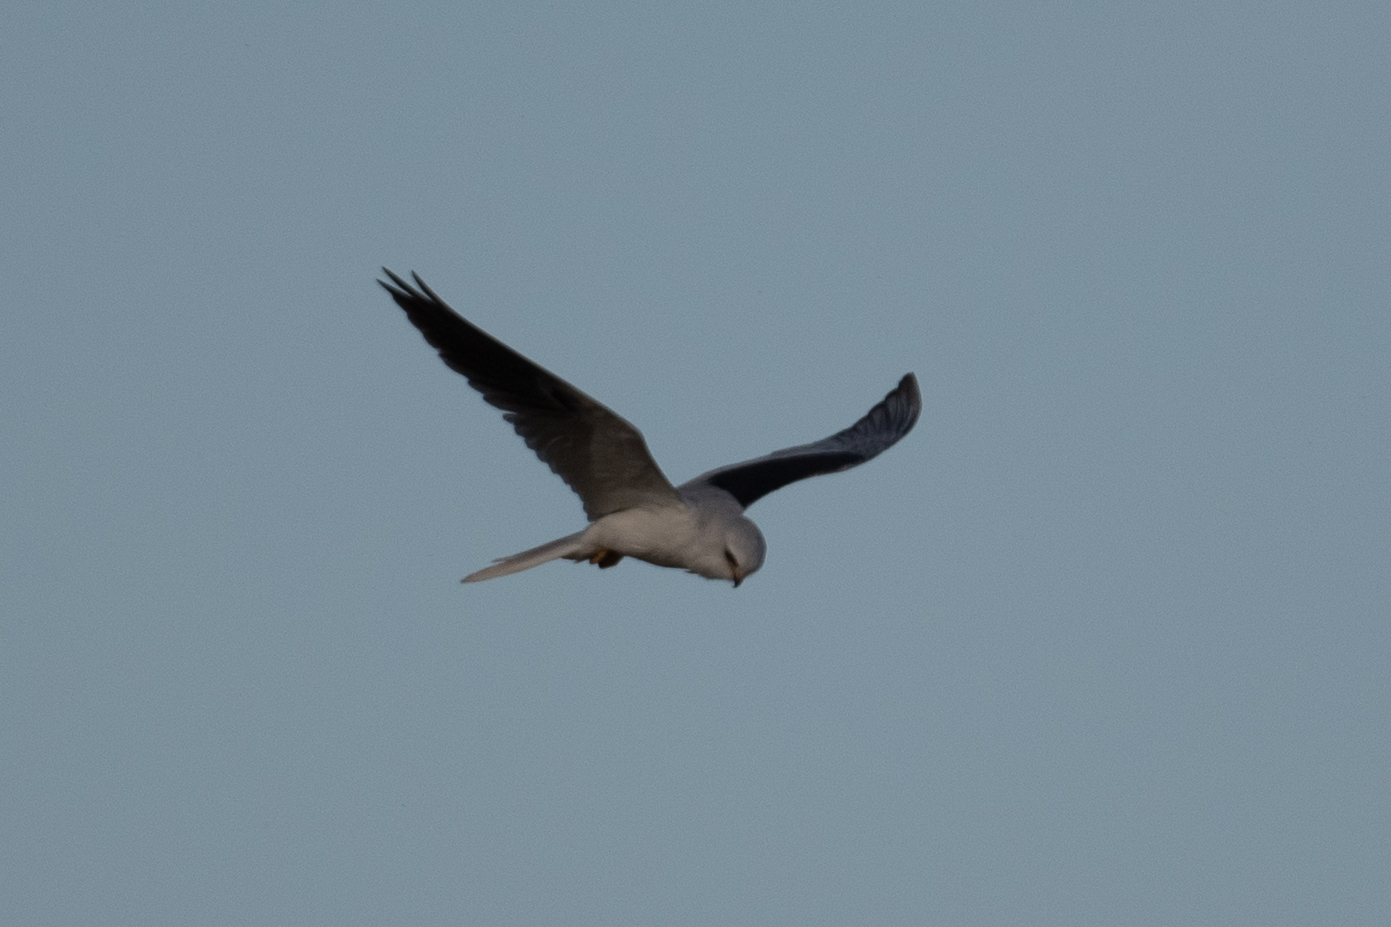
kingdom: Animalia
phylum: Chordata
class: Aves
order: Accipitriformes
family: Accipitridae
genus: Elanus
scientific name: Elanus leucurus
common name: White-tailed kite
